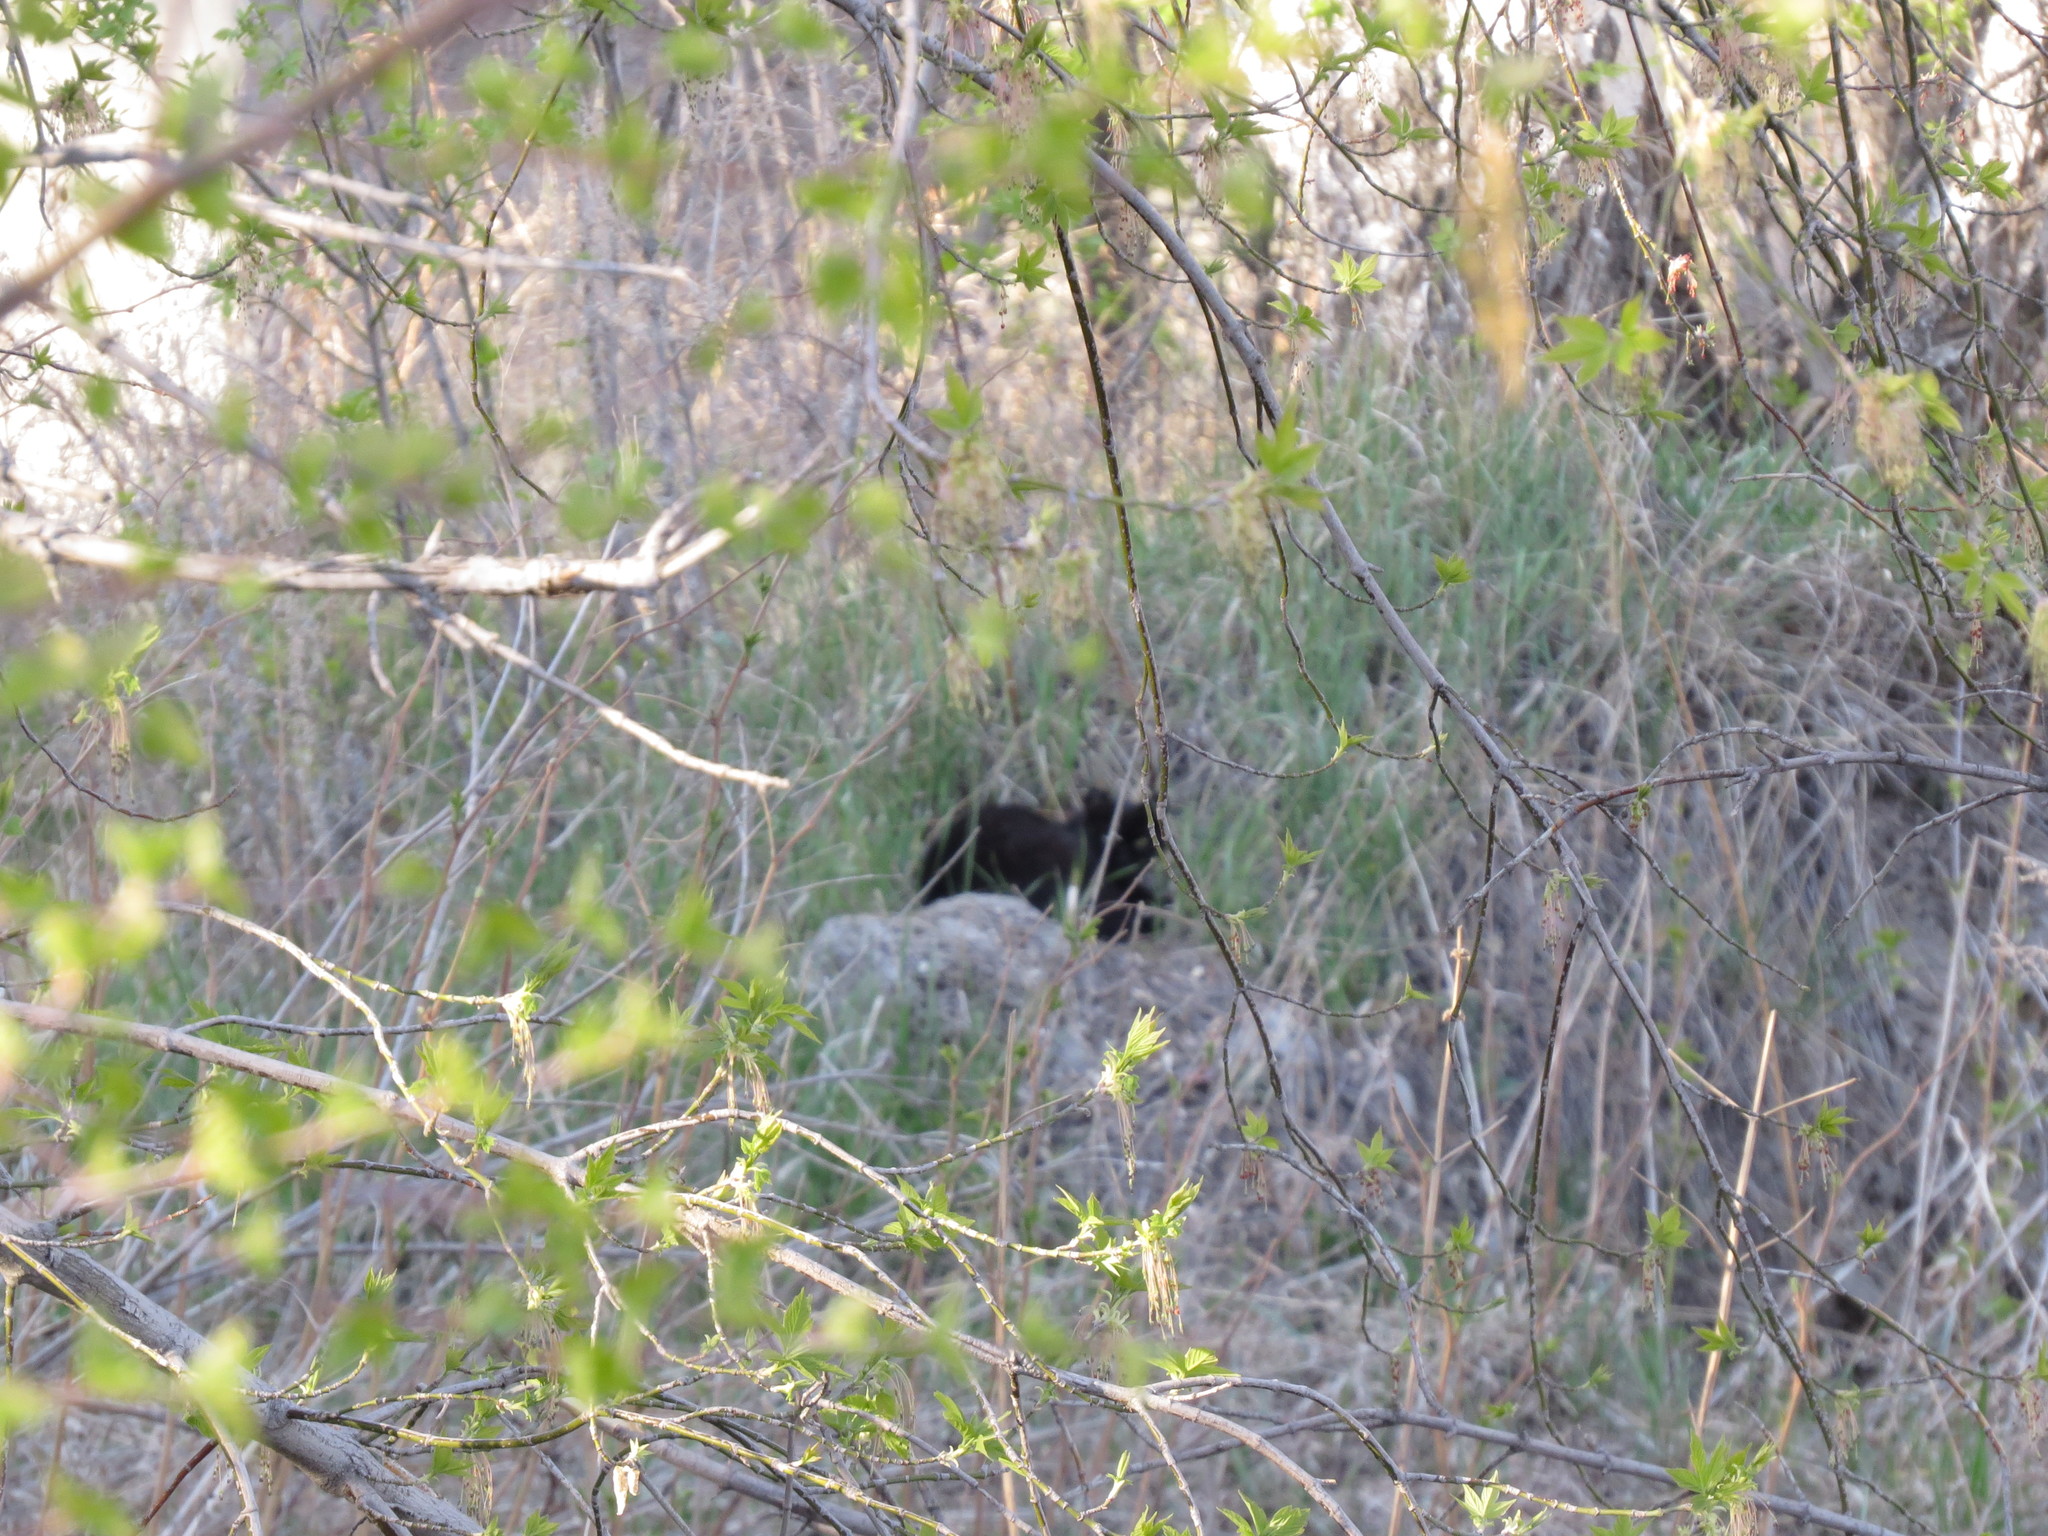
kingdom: Animalia
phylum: Chordata
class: Mammalia
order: Carnivora
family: Felidae
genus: Felis
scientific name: Felis catus
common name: Domestic cat
